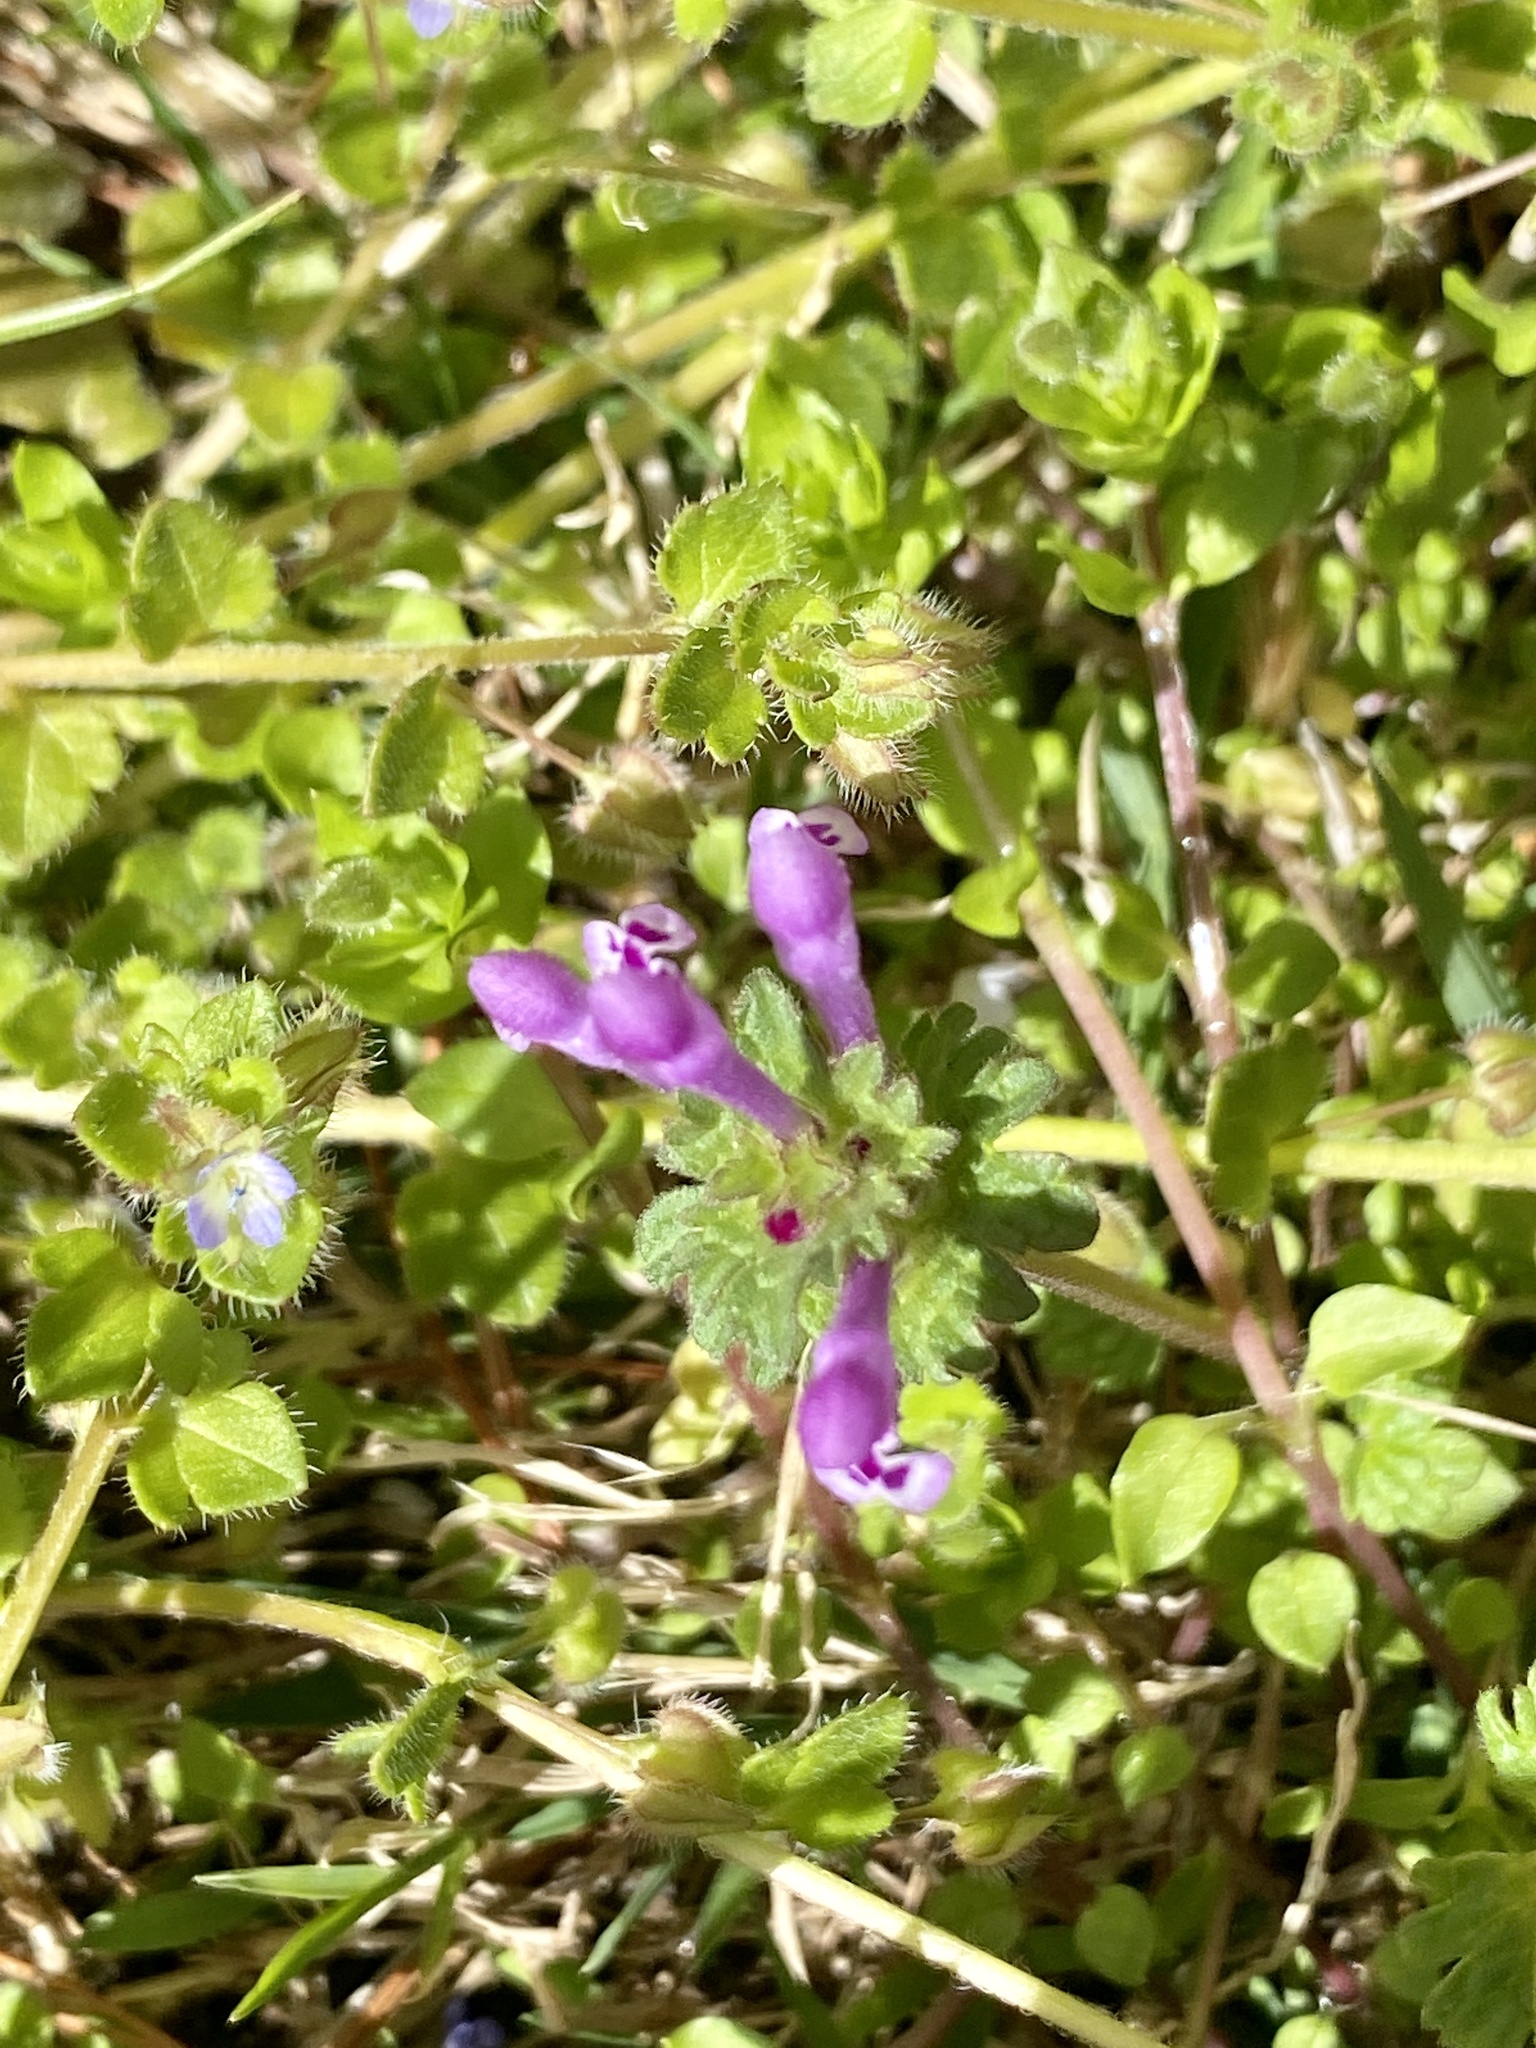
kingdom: Plantae
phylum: Tracheophyta
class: Magnoliopsida
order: Lamiales
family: Lamiaceae
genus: Lamium
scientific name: Lamium amplexicaule
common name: Henbit dead-nettle
